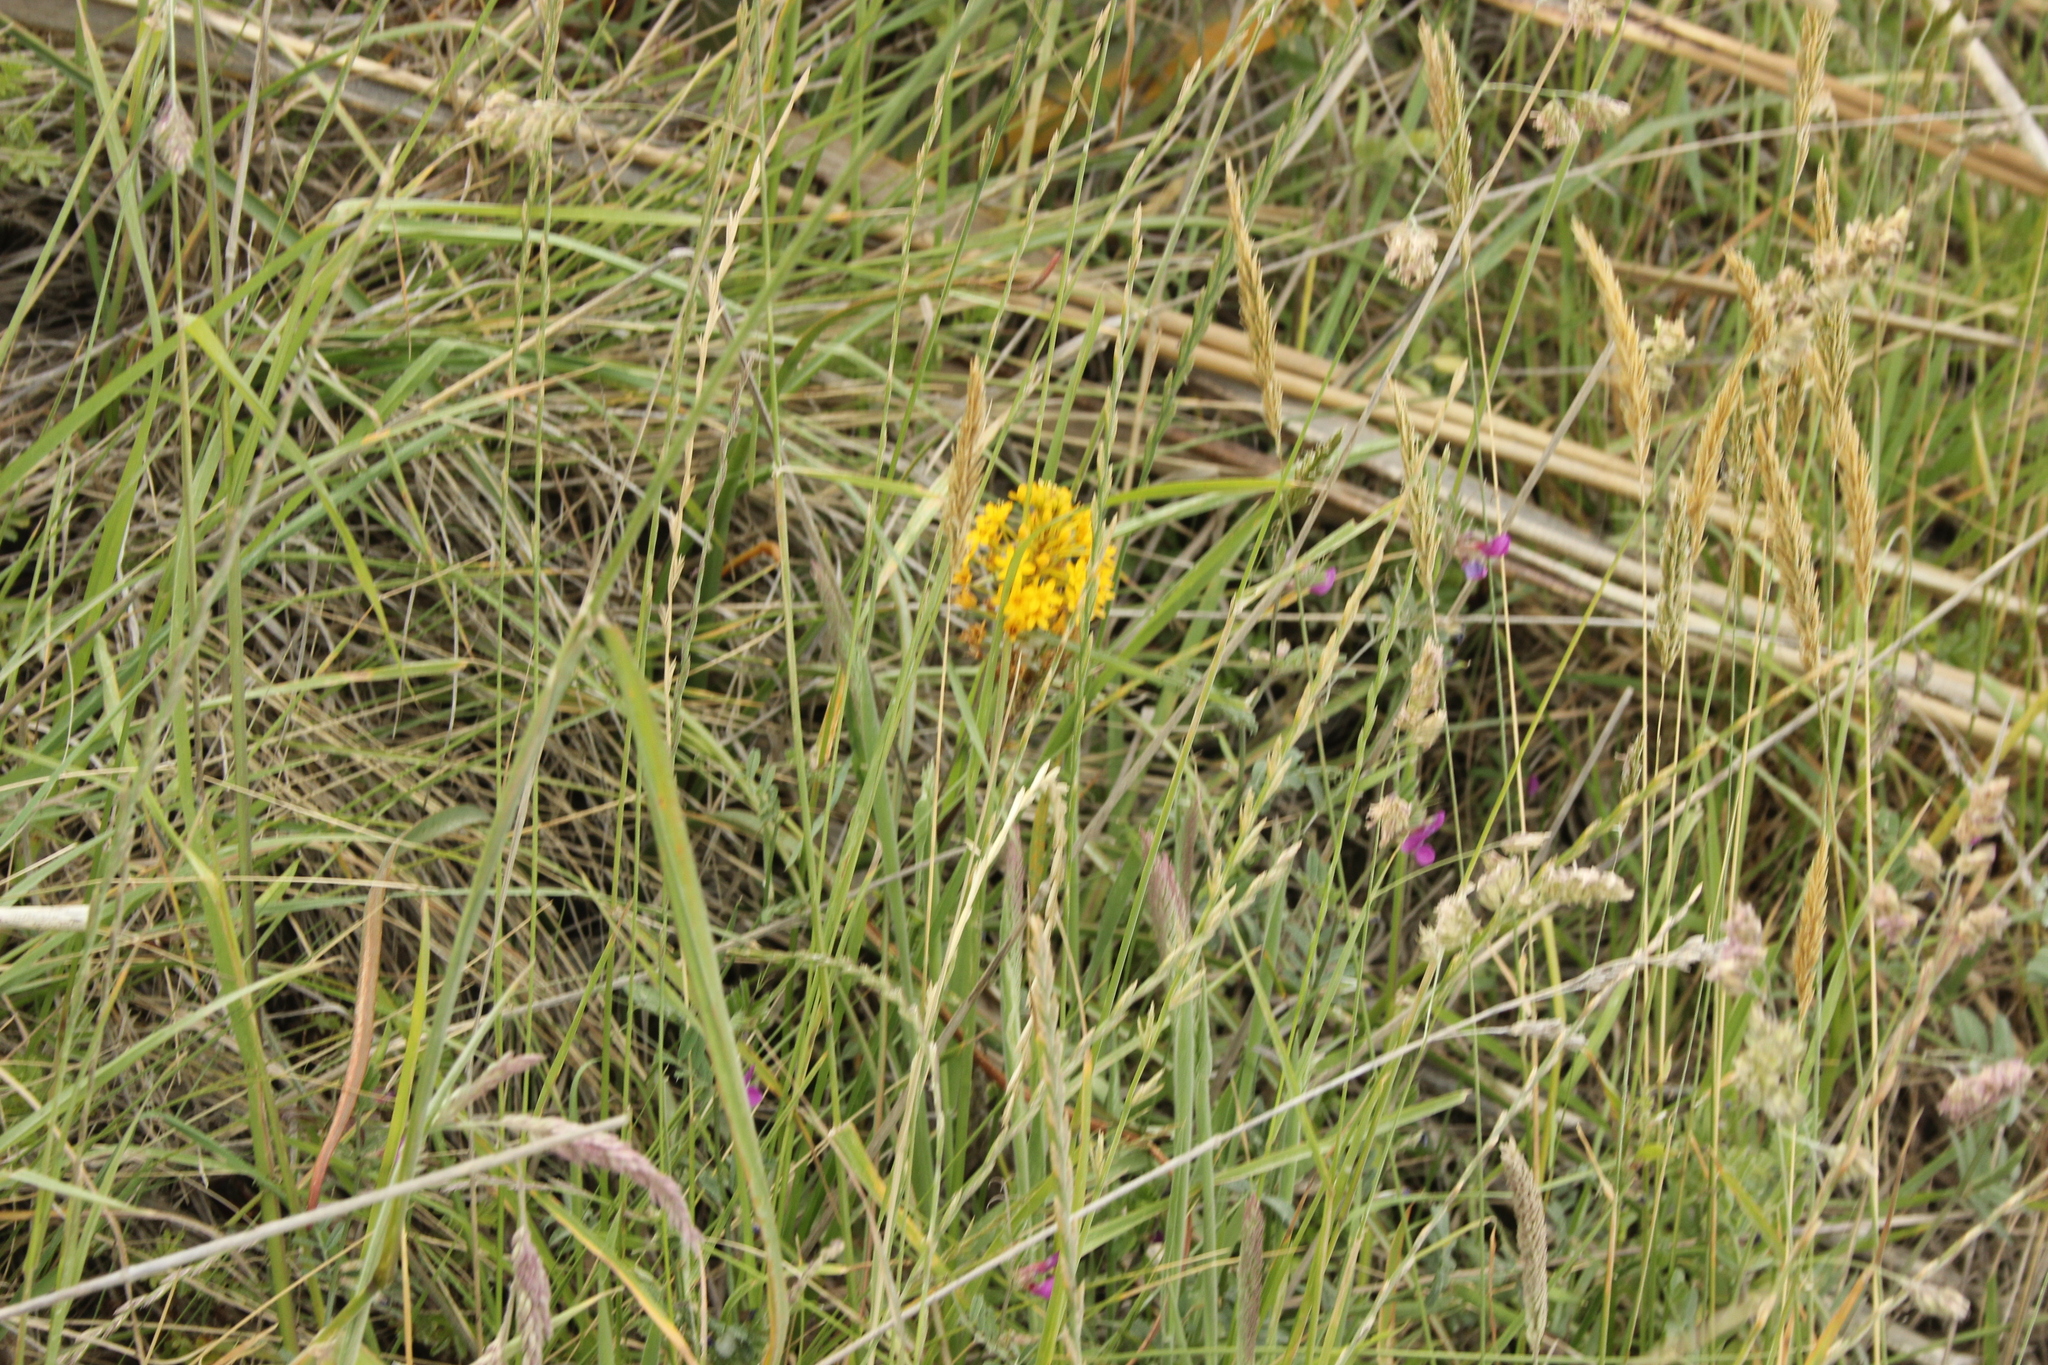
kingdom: Plantae
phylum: Tracheophyta
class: Liliopsida
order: Asparagales
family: Asphodelaceae
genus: Bulbinella
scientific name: Bulbinella angustifolia
